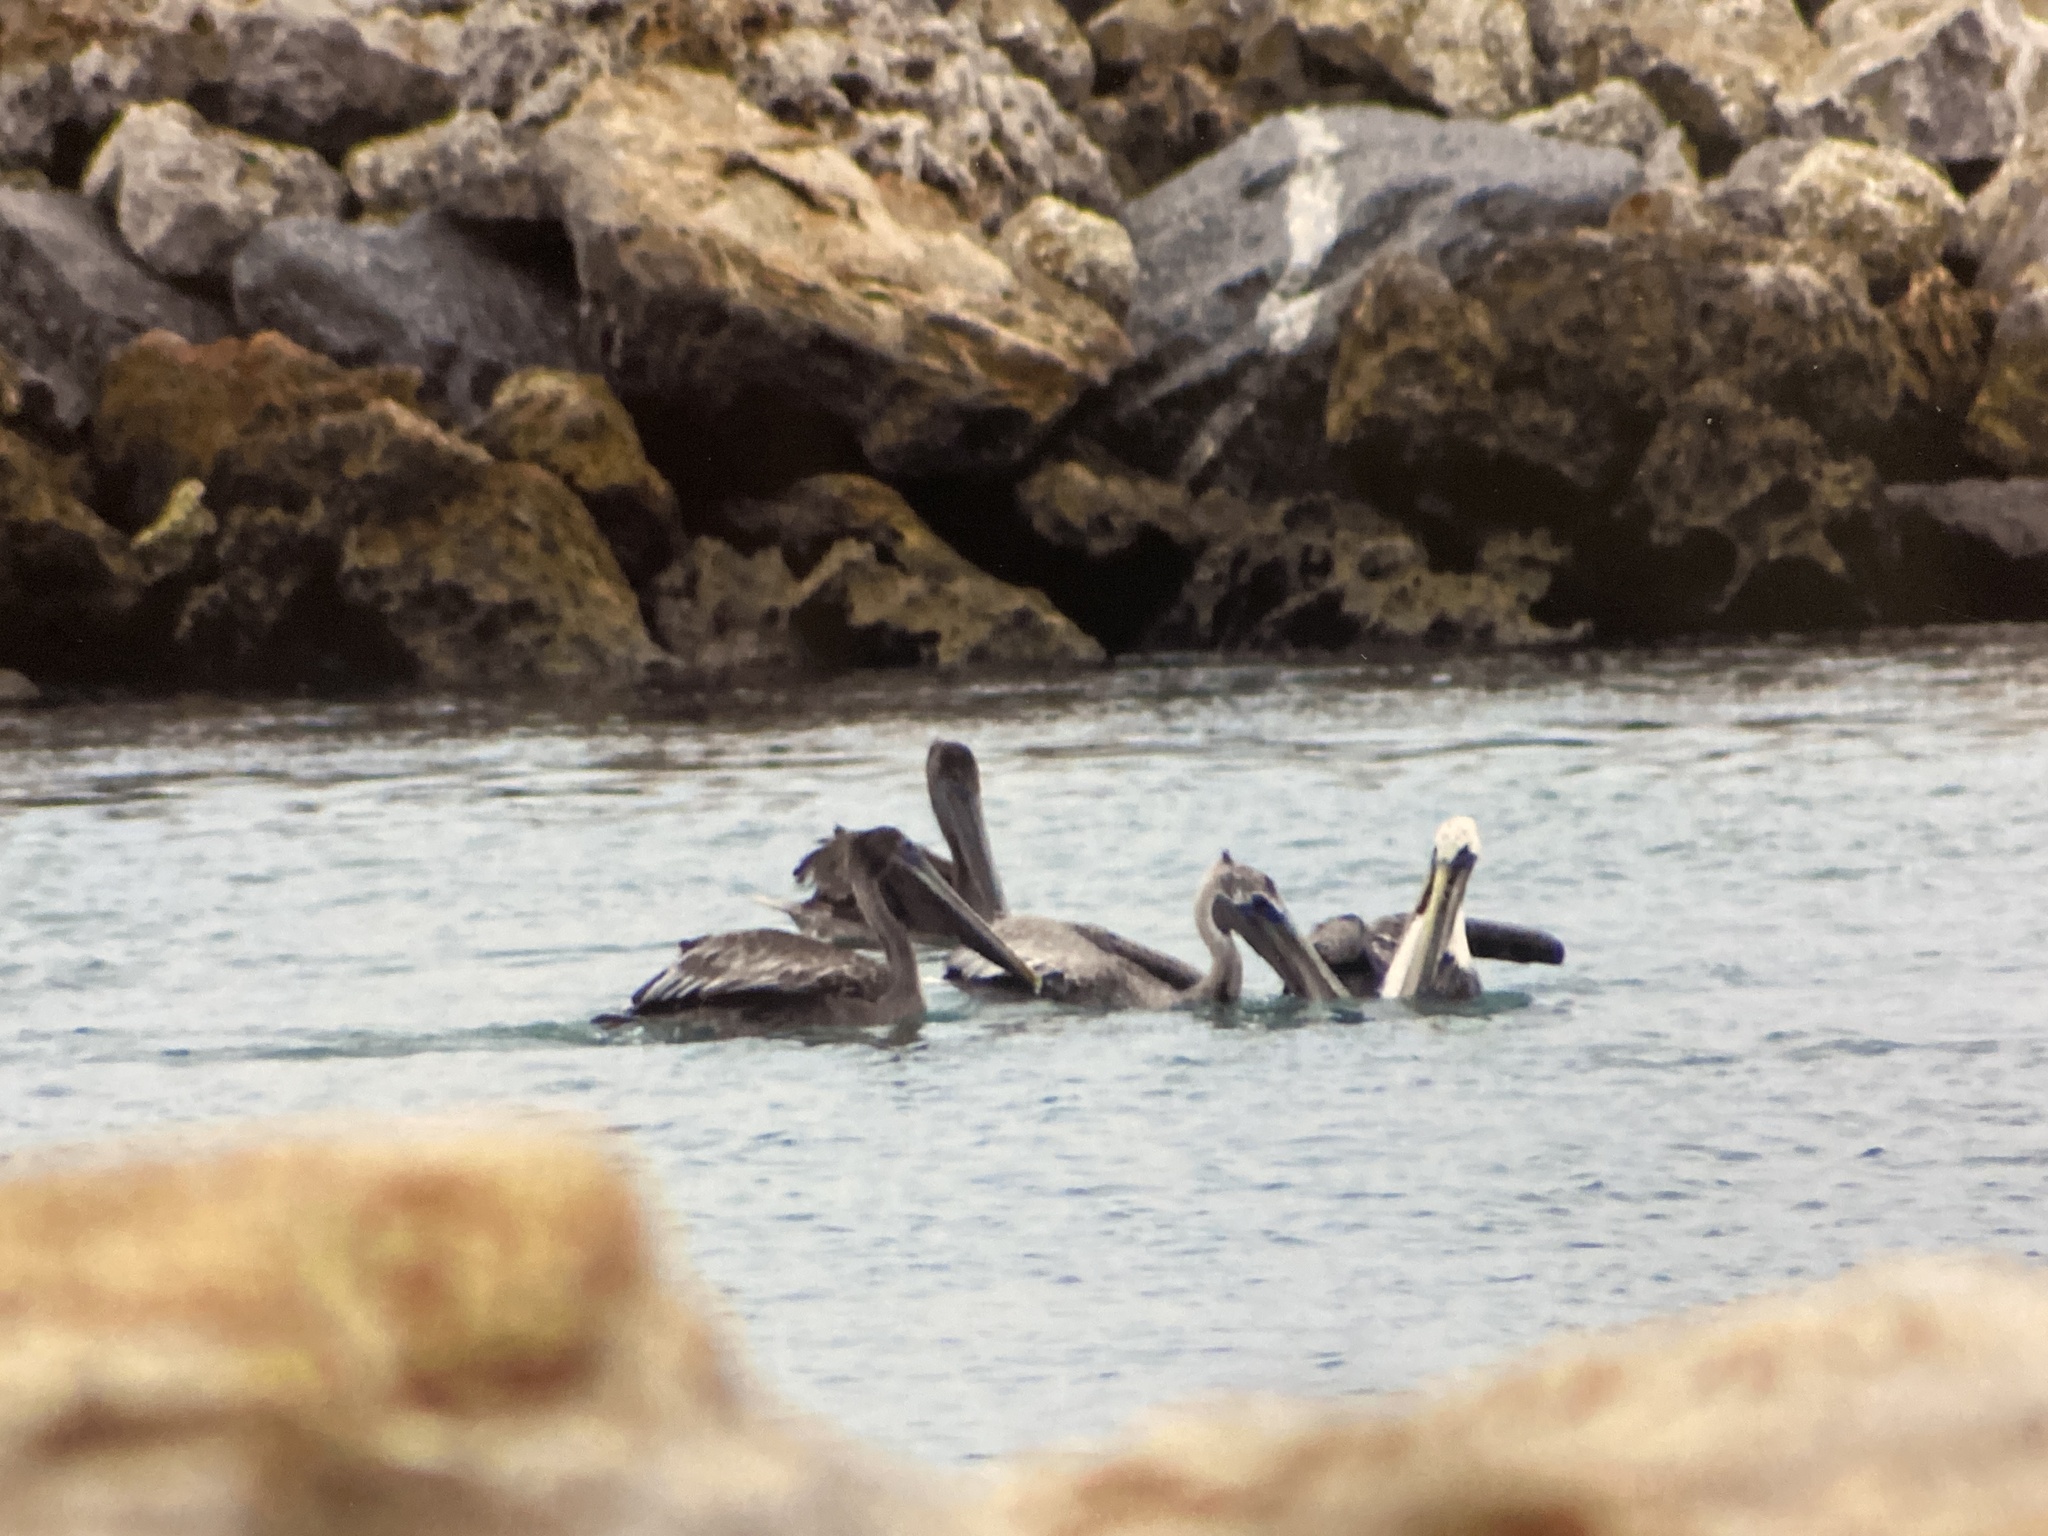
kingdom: Animalia
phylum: Chordata
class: Aves
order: Pelecaniformes
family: Pelecanidae
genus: Pelecanus
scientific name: Pelecanus occidentalis
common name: Brown pelican
